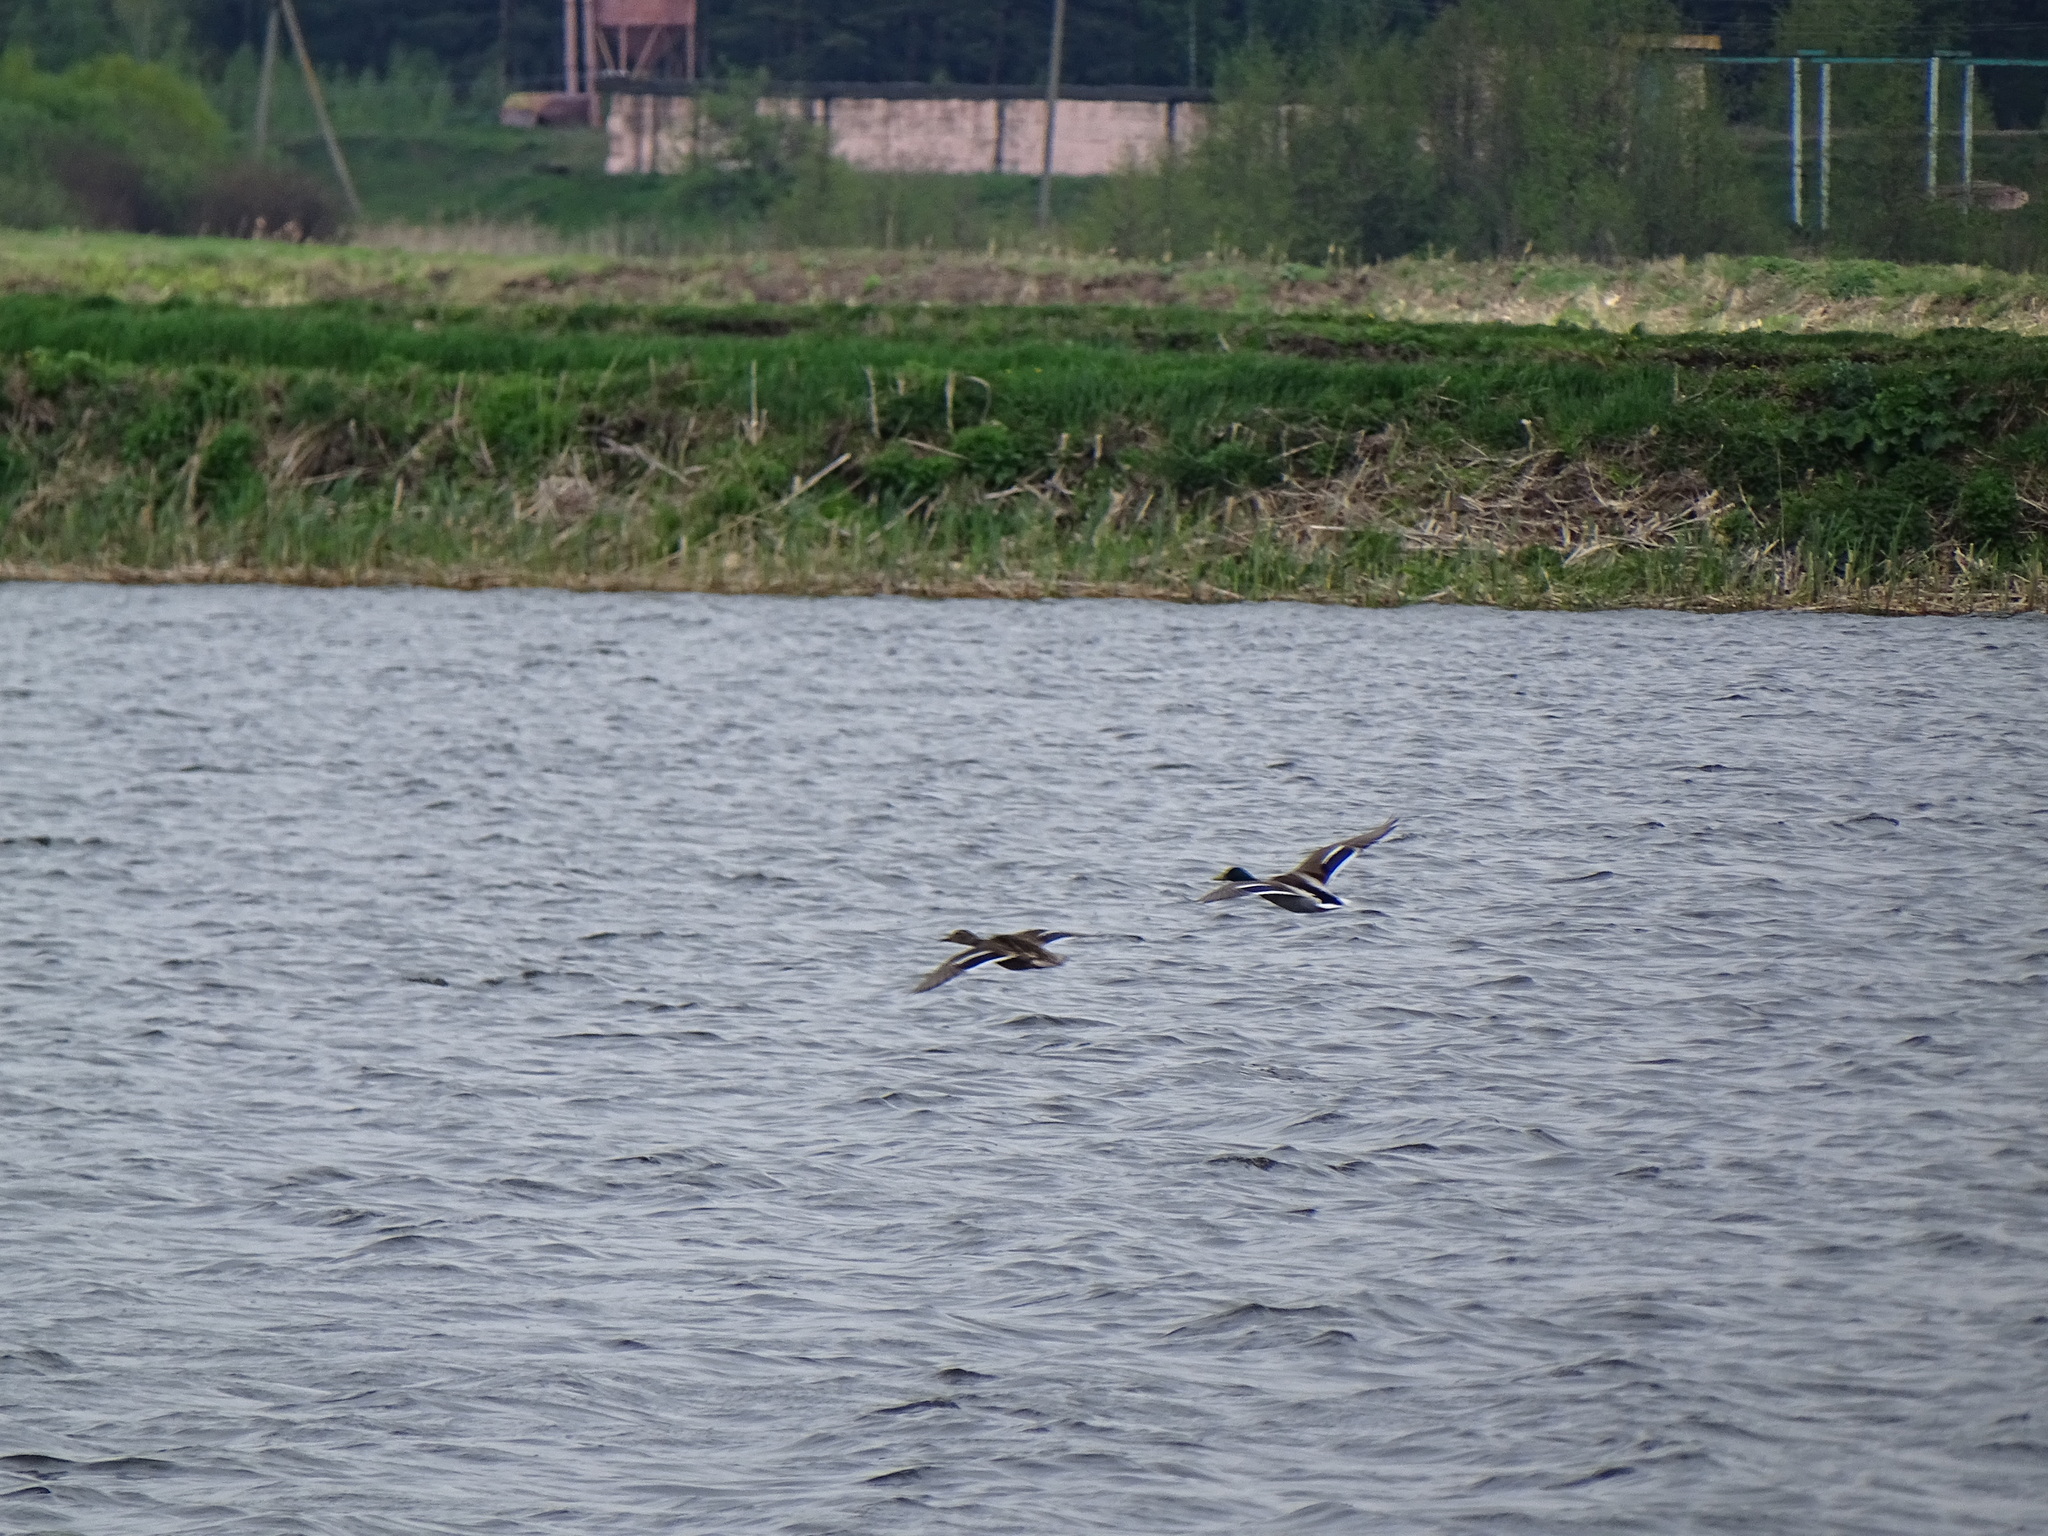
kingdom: Animalia
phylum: Chordata
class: Aves
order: Anseriformes
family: Anatidae
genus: Anas
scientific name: Anas platyrhynchos
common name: Mallard
